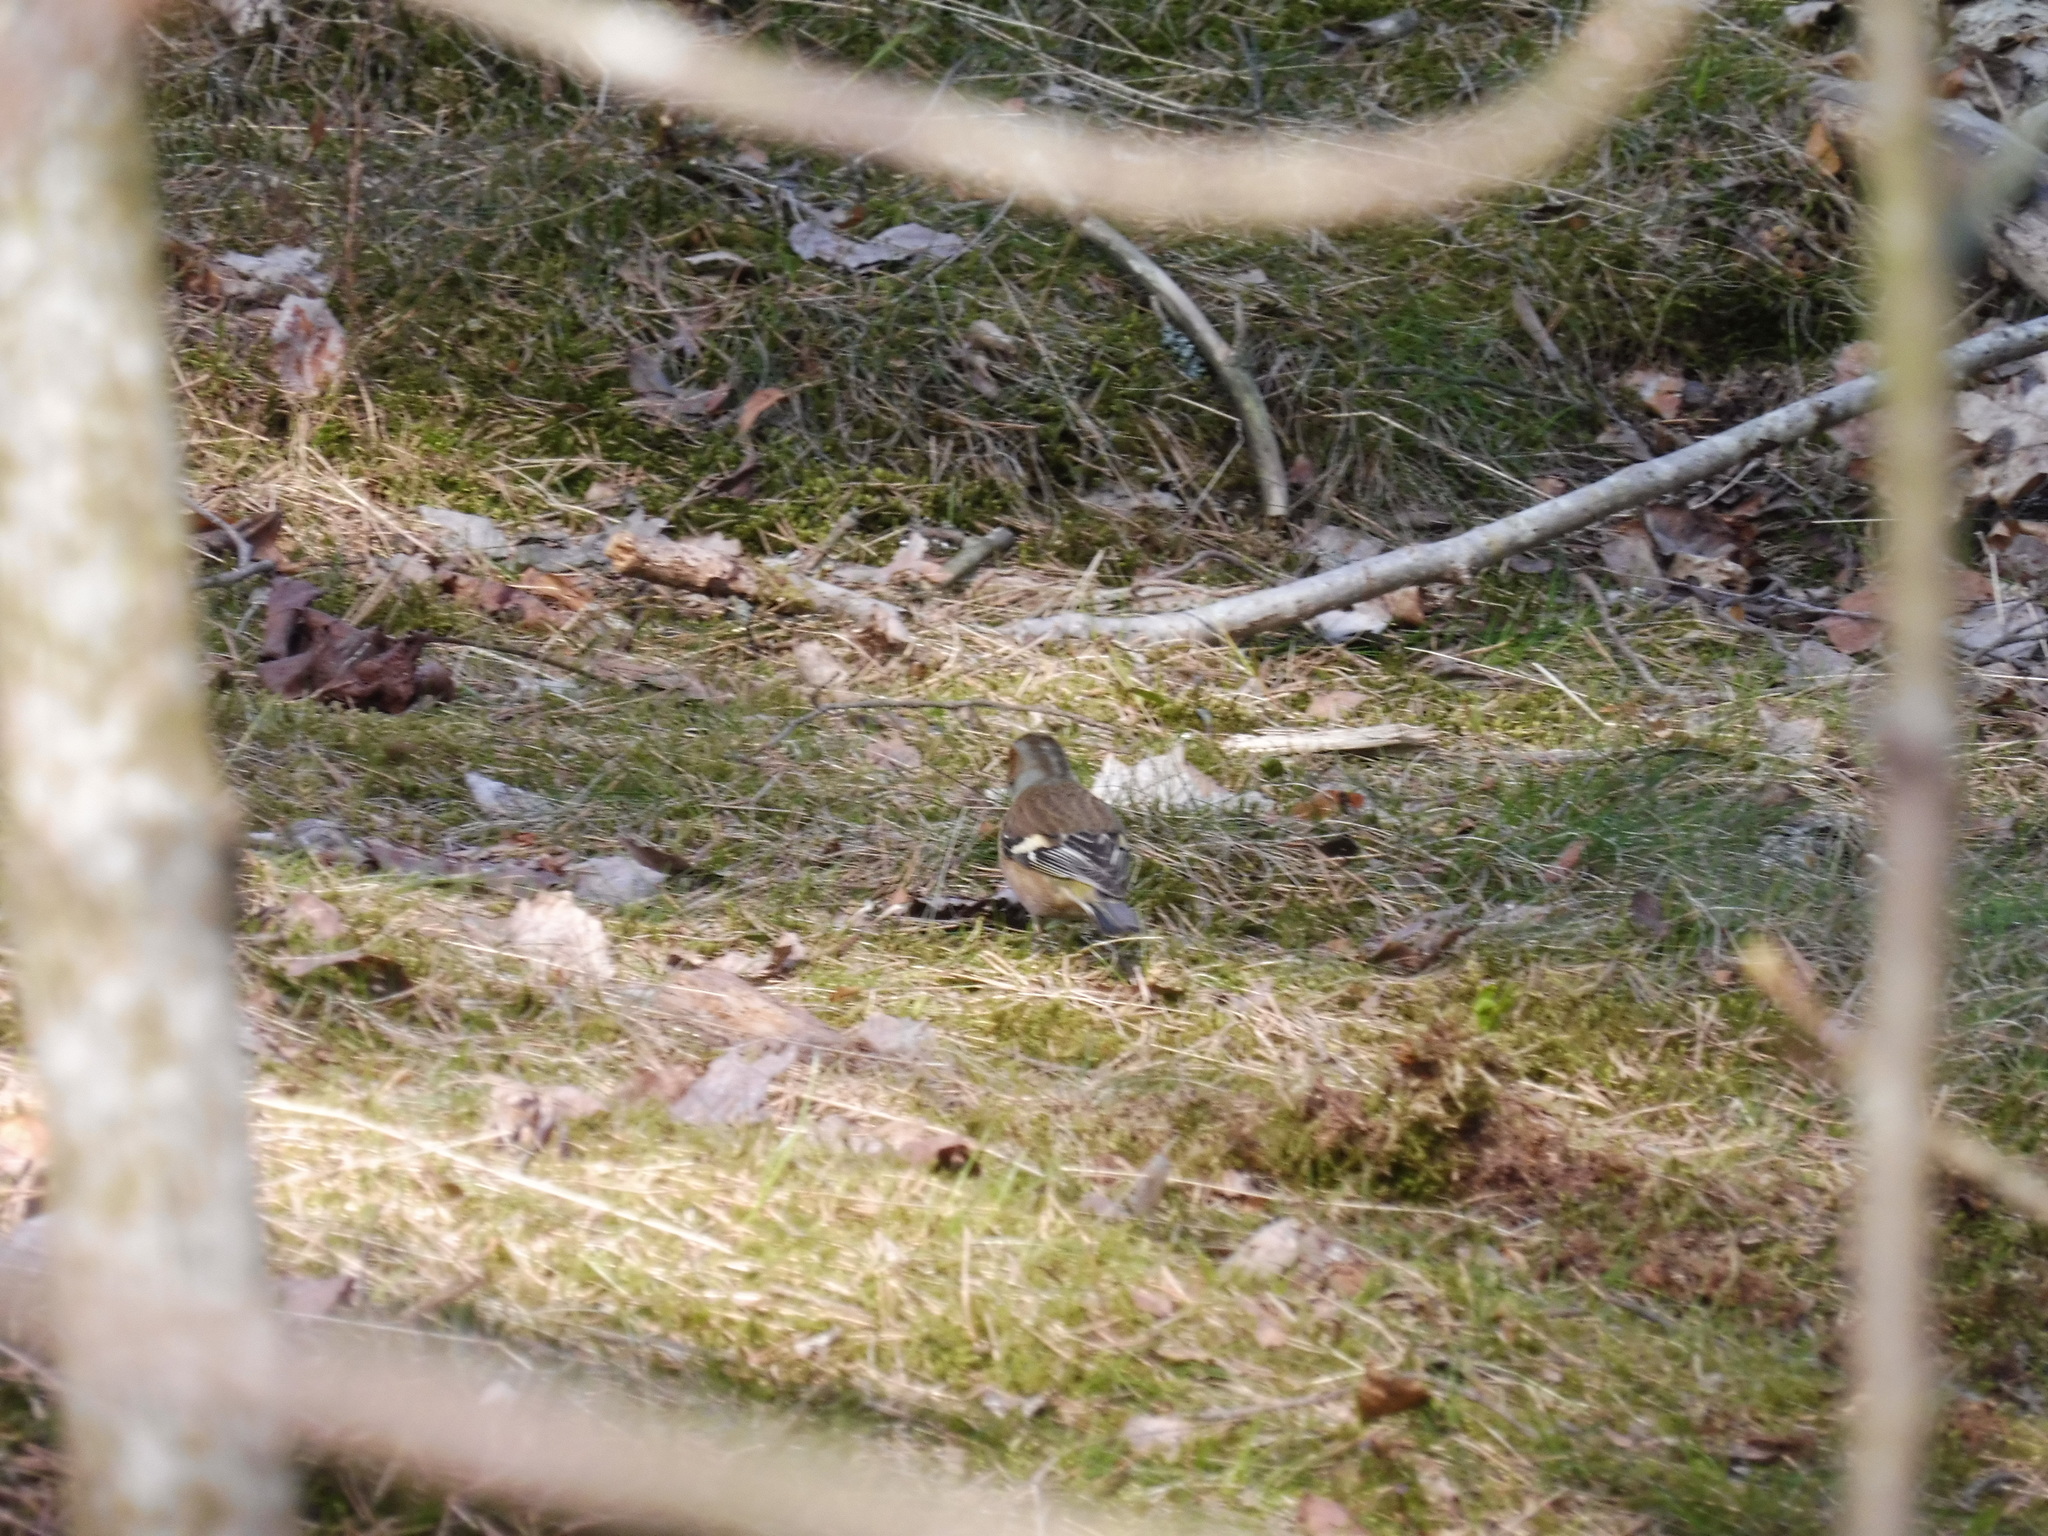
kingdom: Animalia
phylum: Chordata
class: Aves
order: Passeriformes
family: Fringillidae
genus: Fringilla
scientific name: Fringilla coelebs
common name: Common chaffinch
